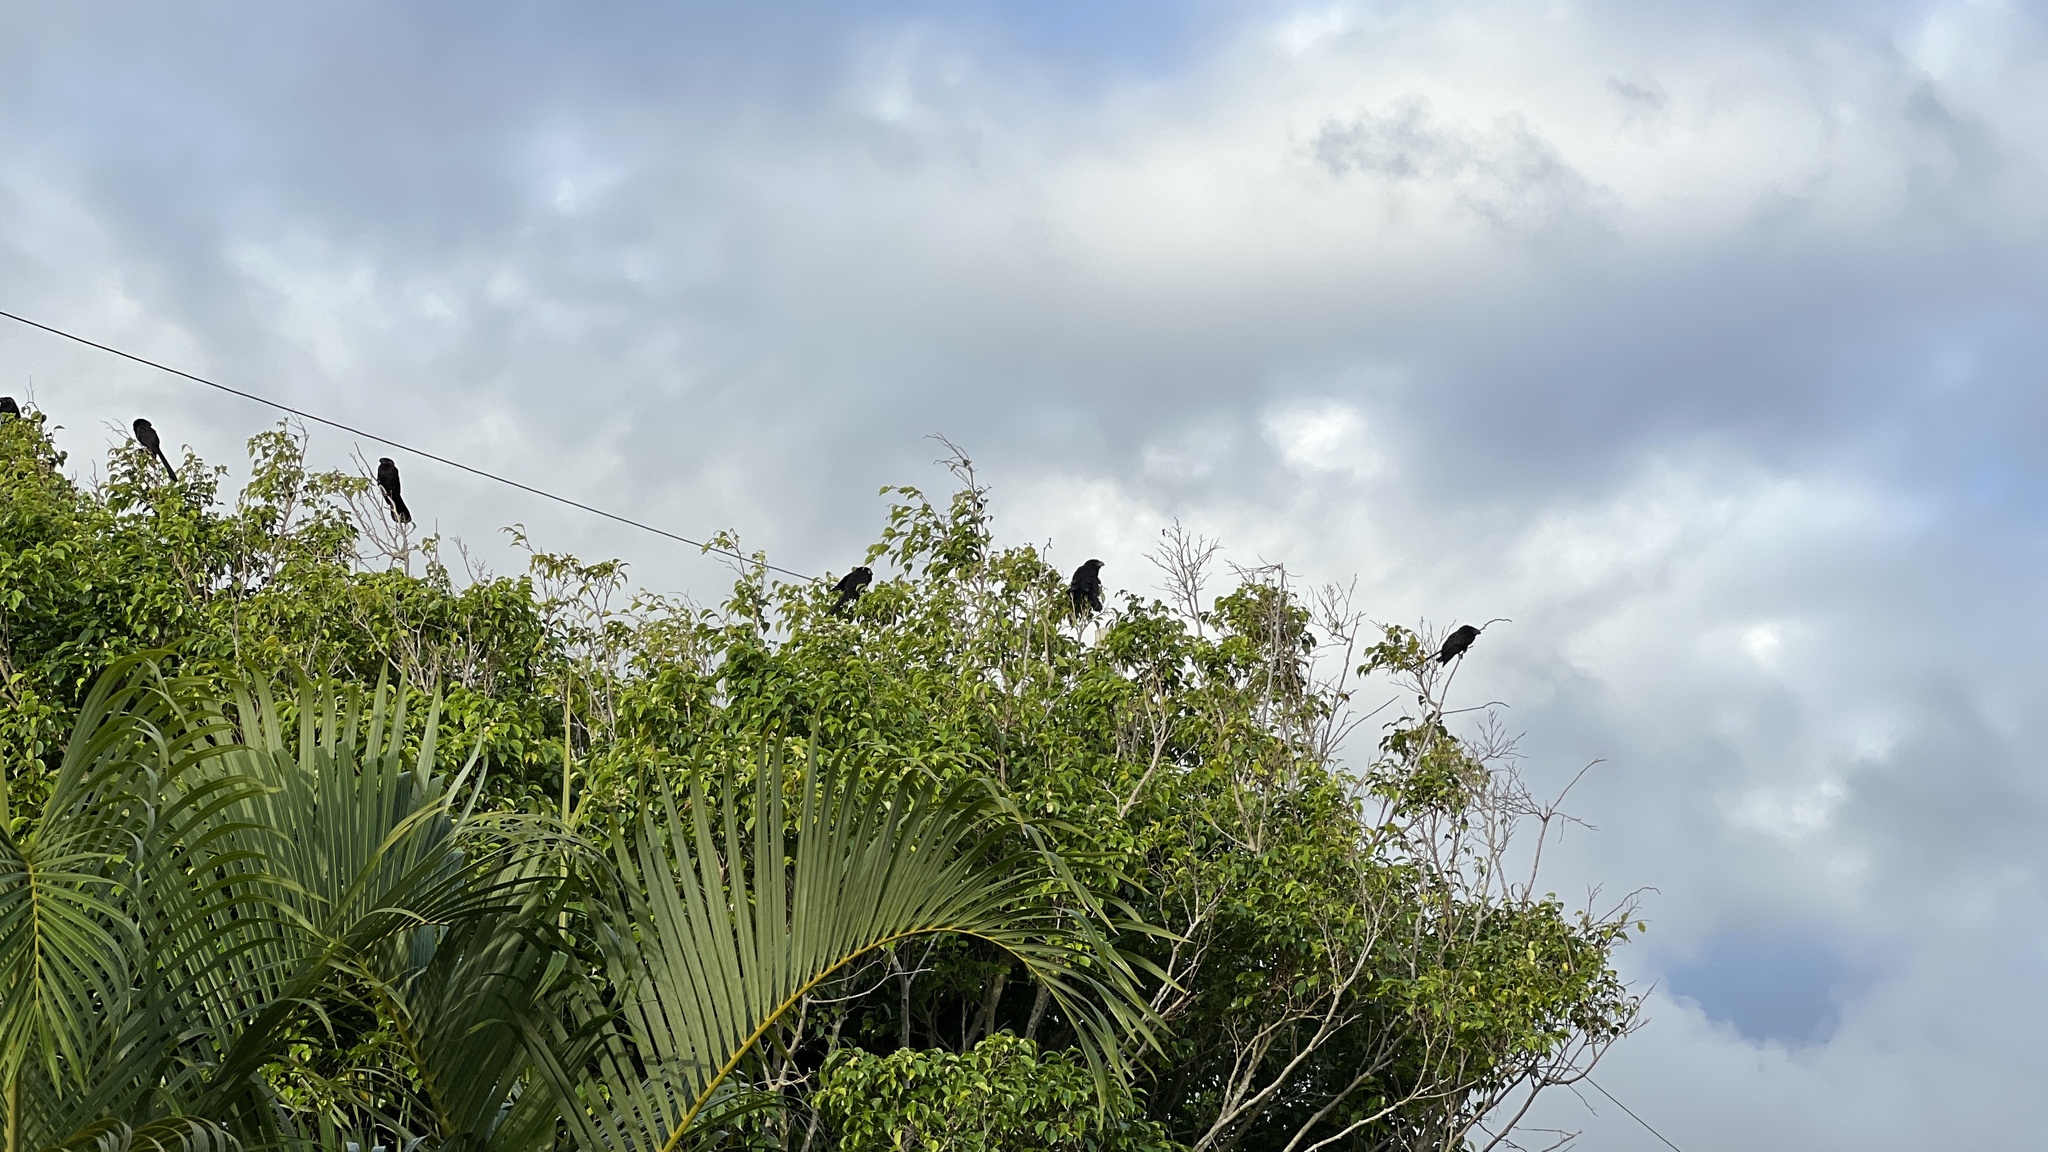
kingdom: Animalia
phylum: Chordata
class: Aves
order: Cuculiformes
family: Cuculidae
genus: Crotophaga
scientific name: Crotophaga ani
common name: Smooth-billed ani
